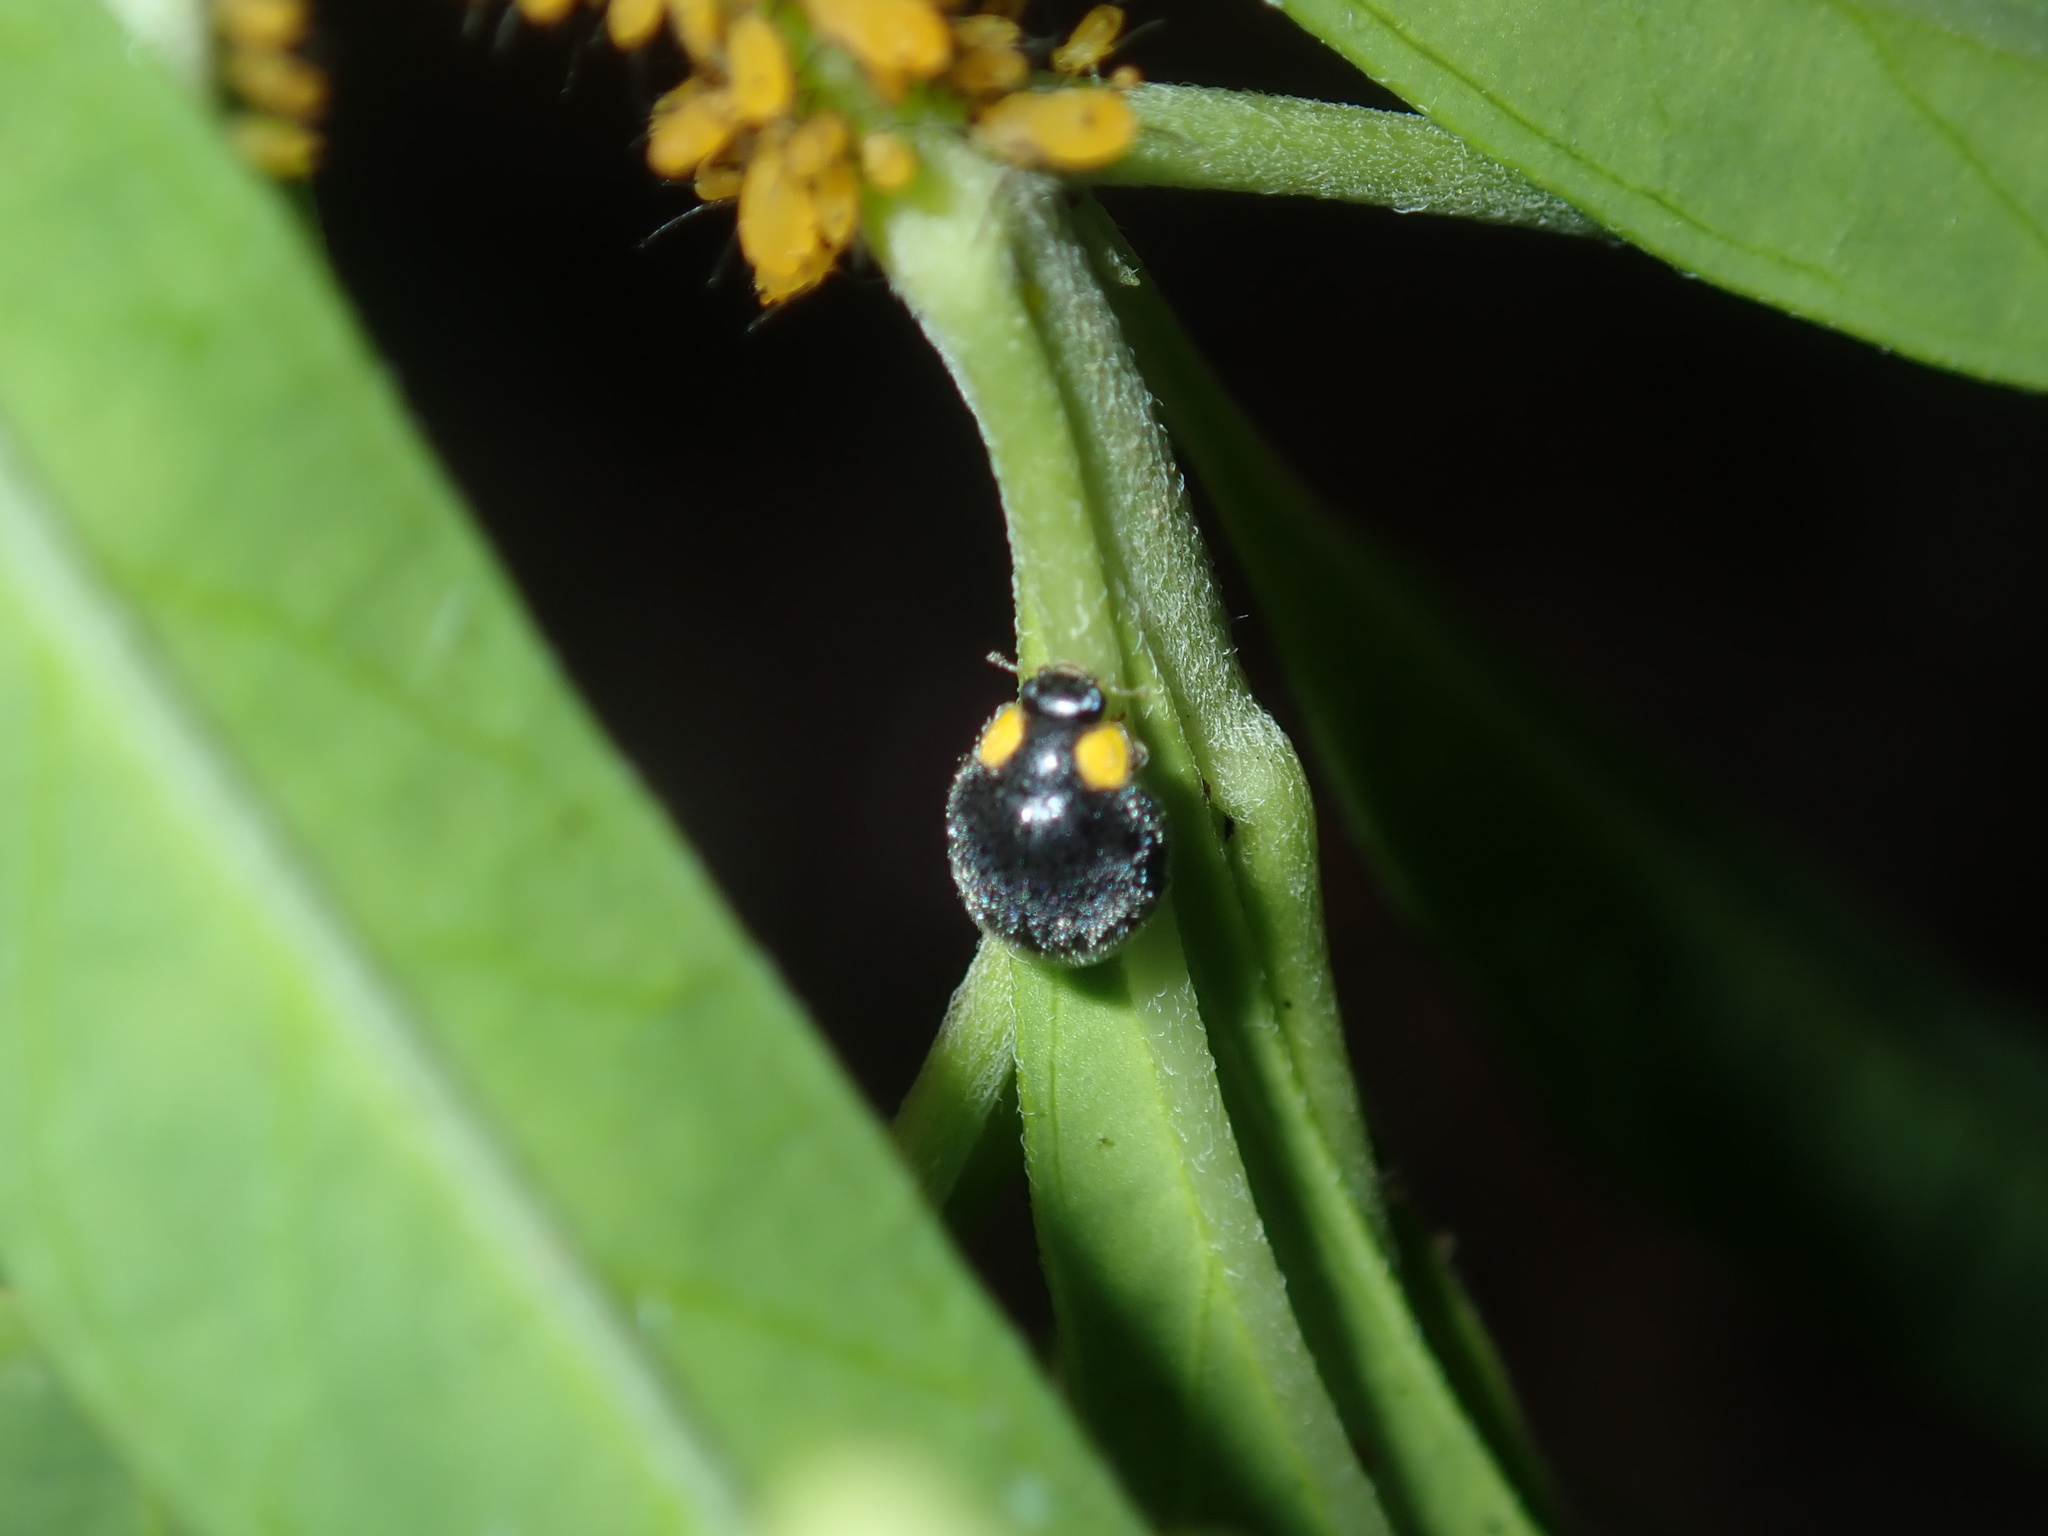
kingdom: Animalia
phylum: Arthropoda
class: Insecta
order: Coleoptera
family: Coccinellidae
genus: Scymnodes
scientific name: Scymnodes lividigaster
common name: Yellowshouldered lady beetle
